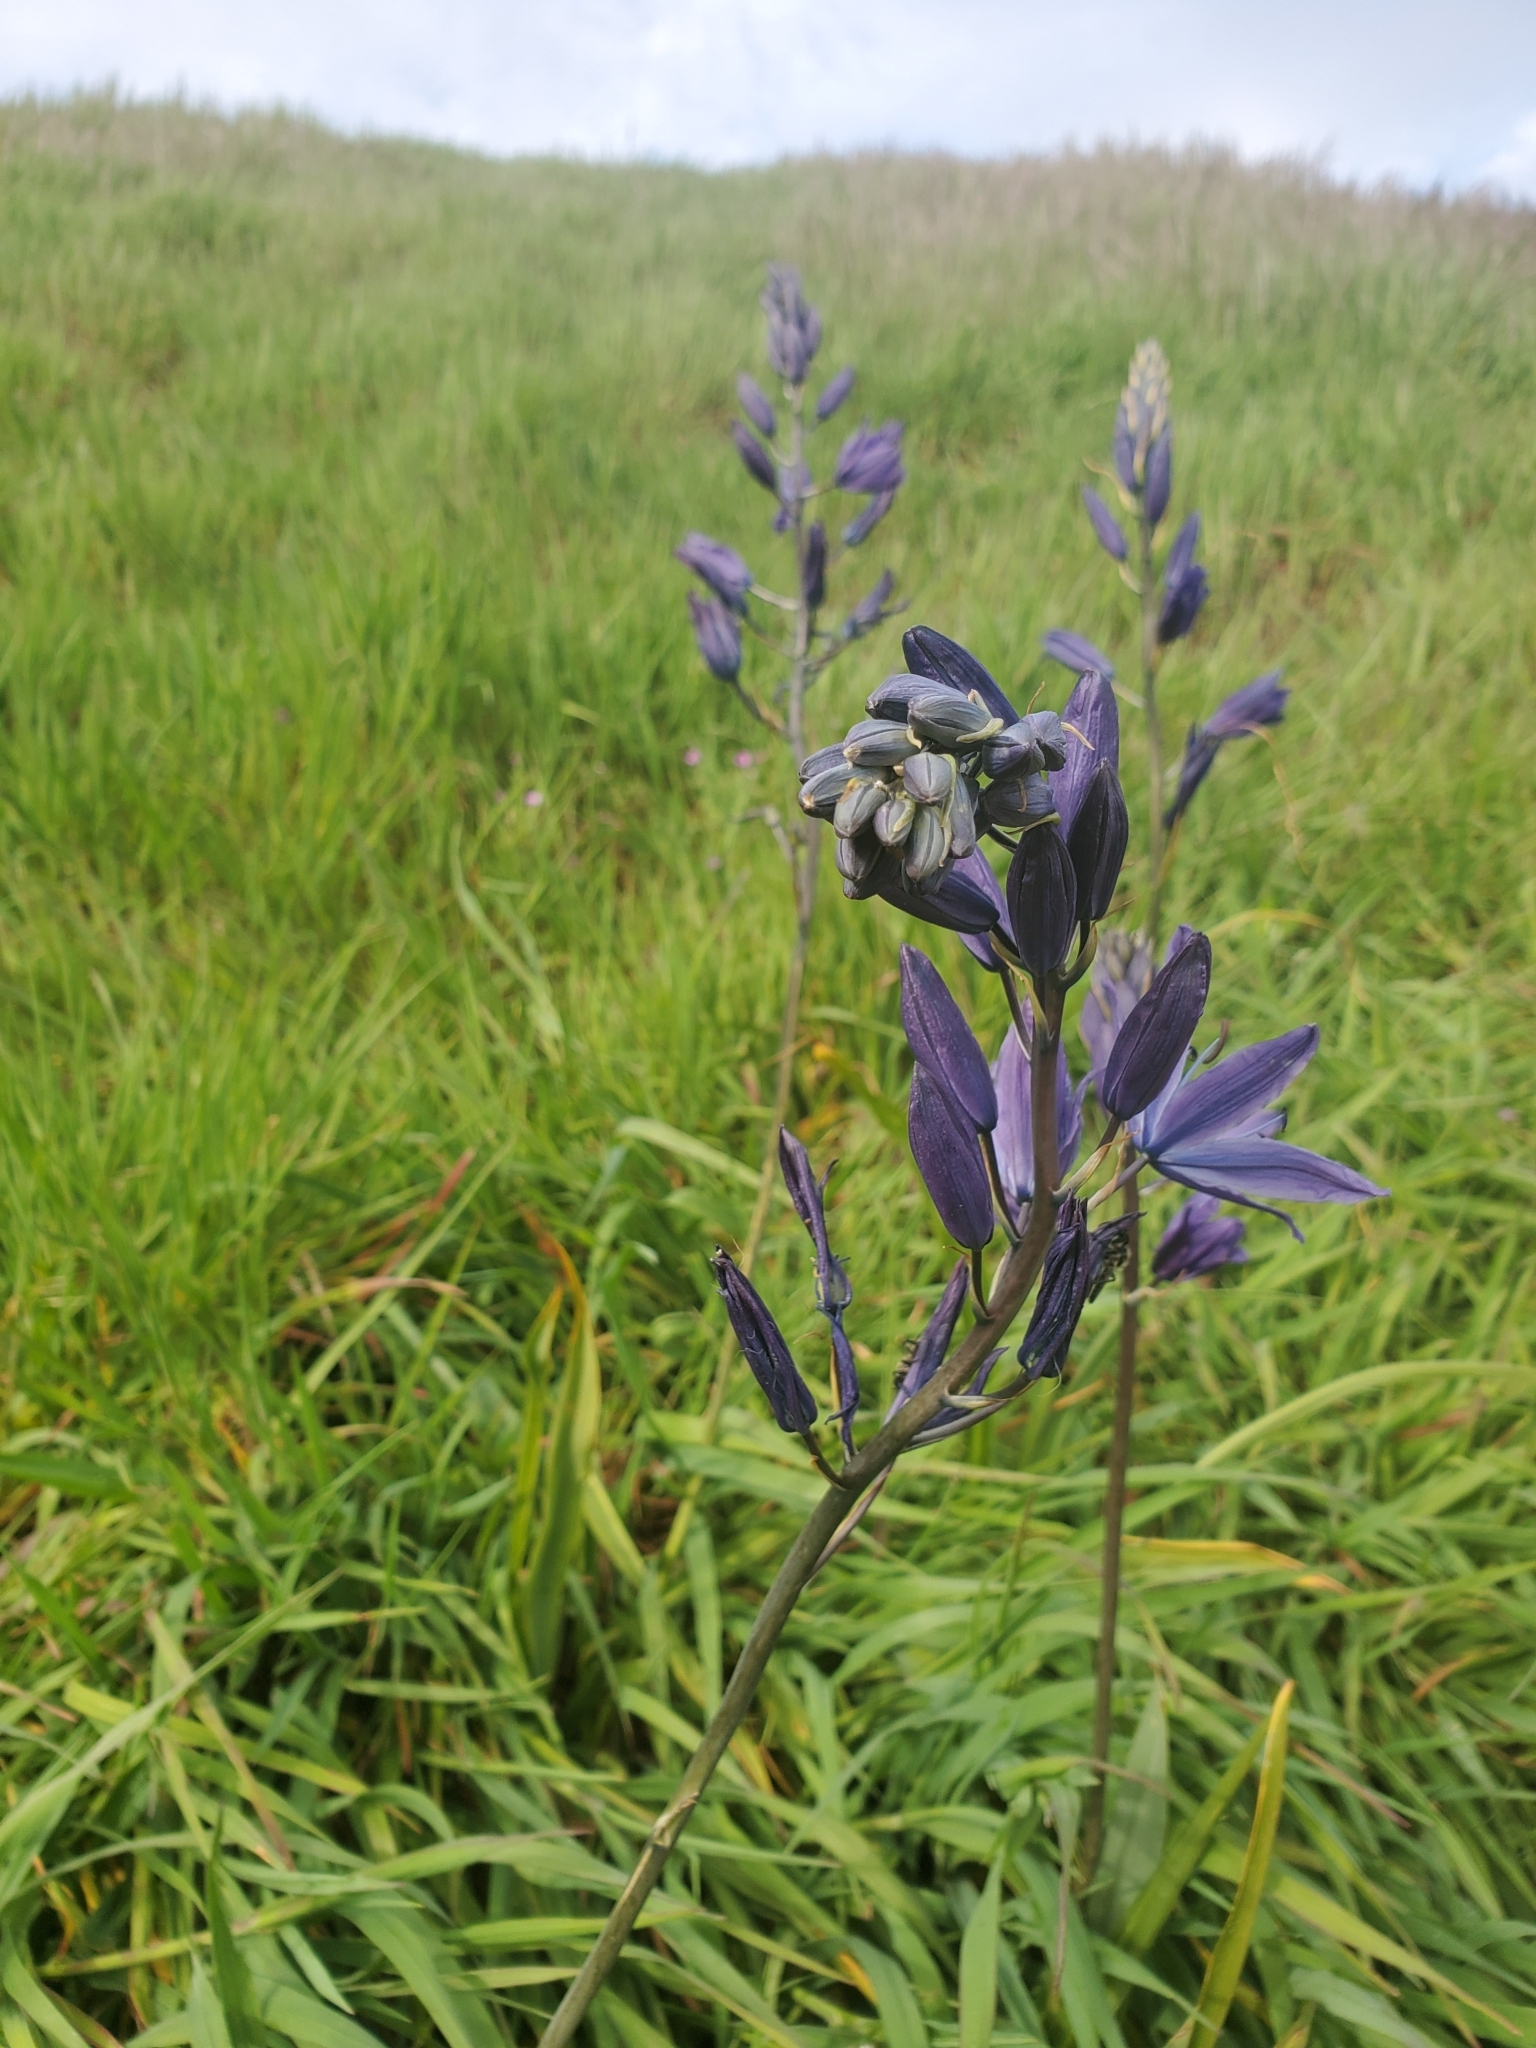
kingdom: Plantae
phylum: Tracheophyta
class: Liliopsida
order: Asparagales
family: Asparagaceae
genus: Camassia
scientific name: Camassia leichtlinii
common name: Leichtlin's camas
